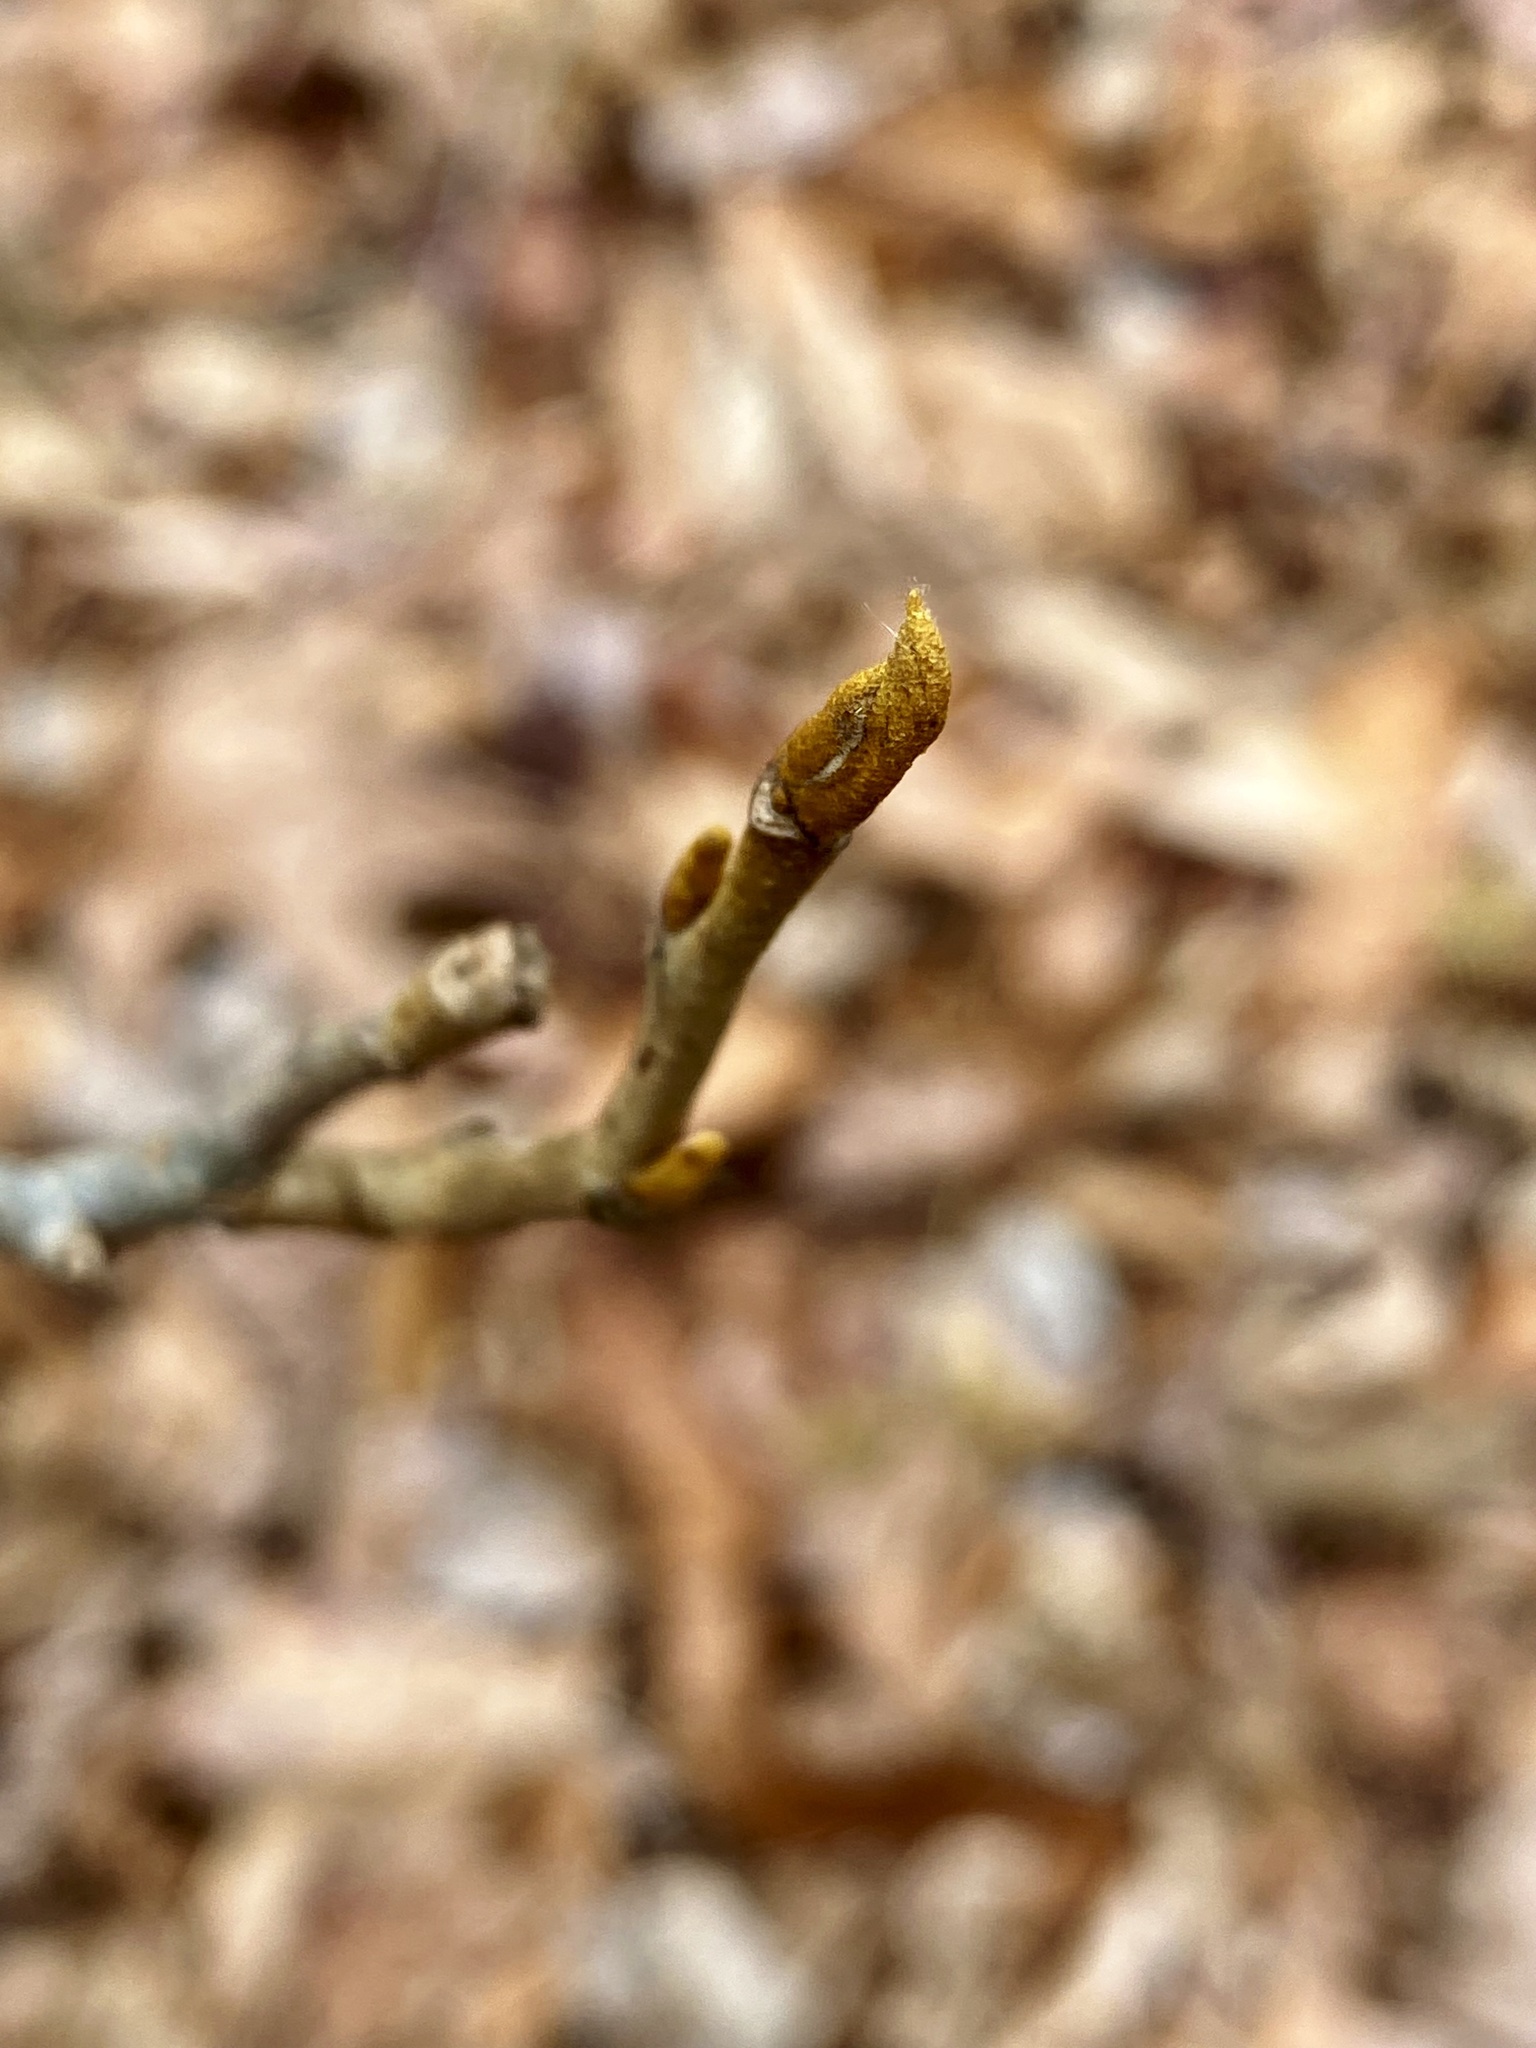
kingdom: Plantae
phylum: Tracheophyta
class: Magnoliopsida
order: Fagales
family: Juglandaceae
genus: Carya
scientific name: Carya cordiformis
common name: Bitternut hickory
